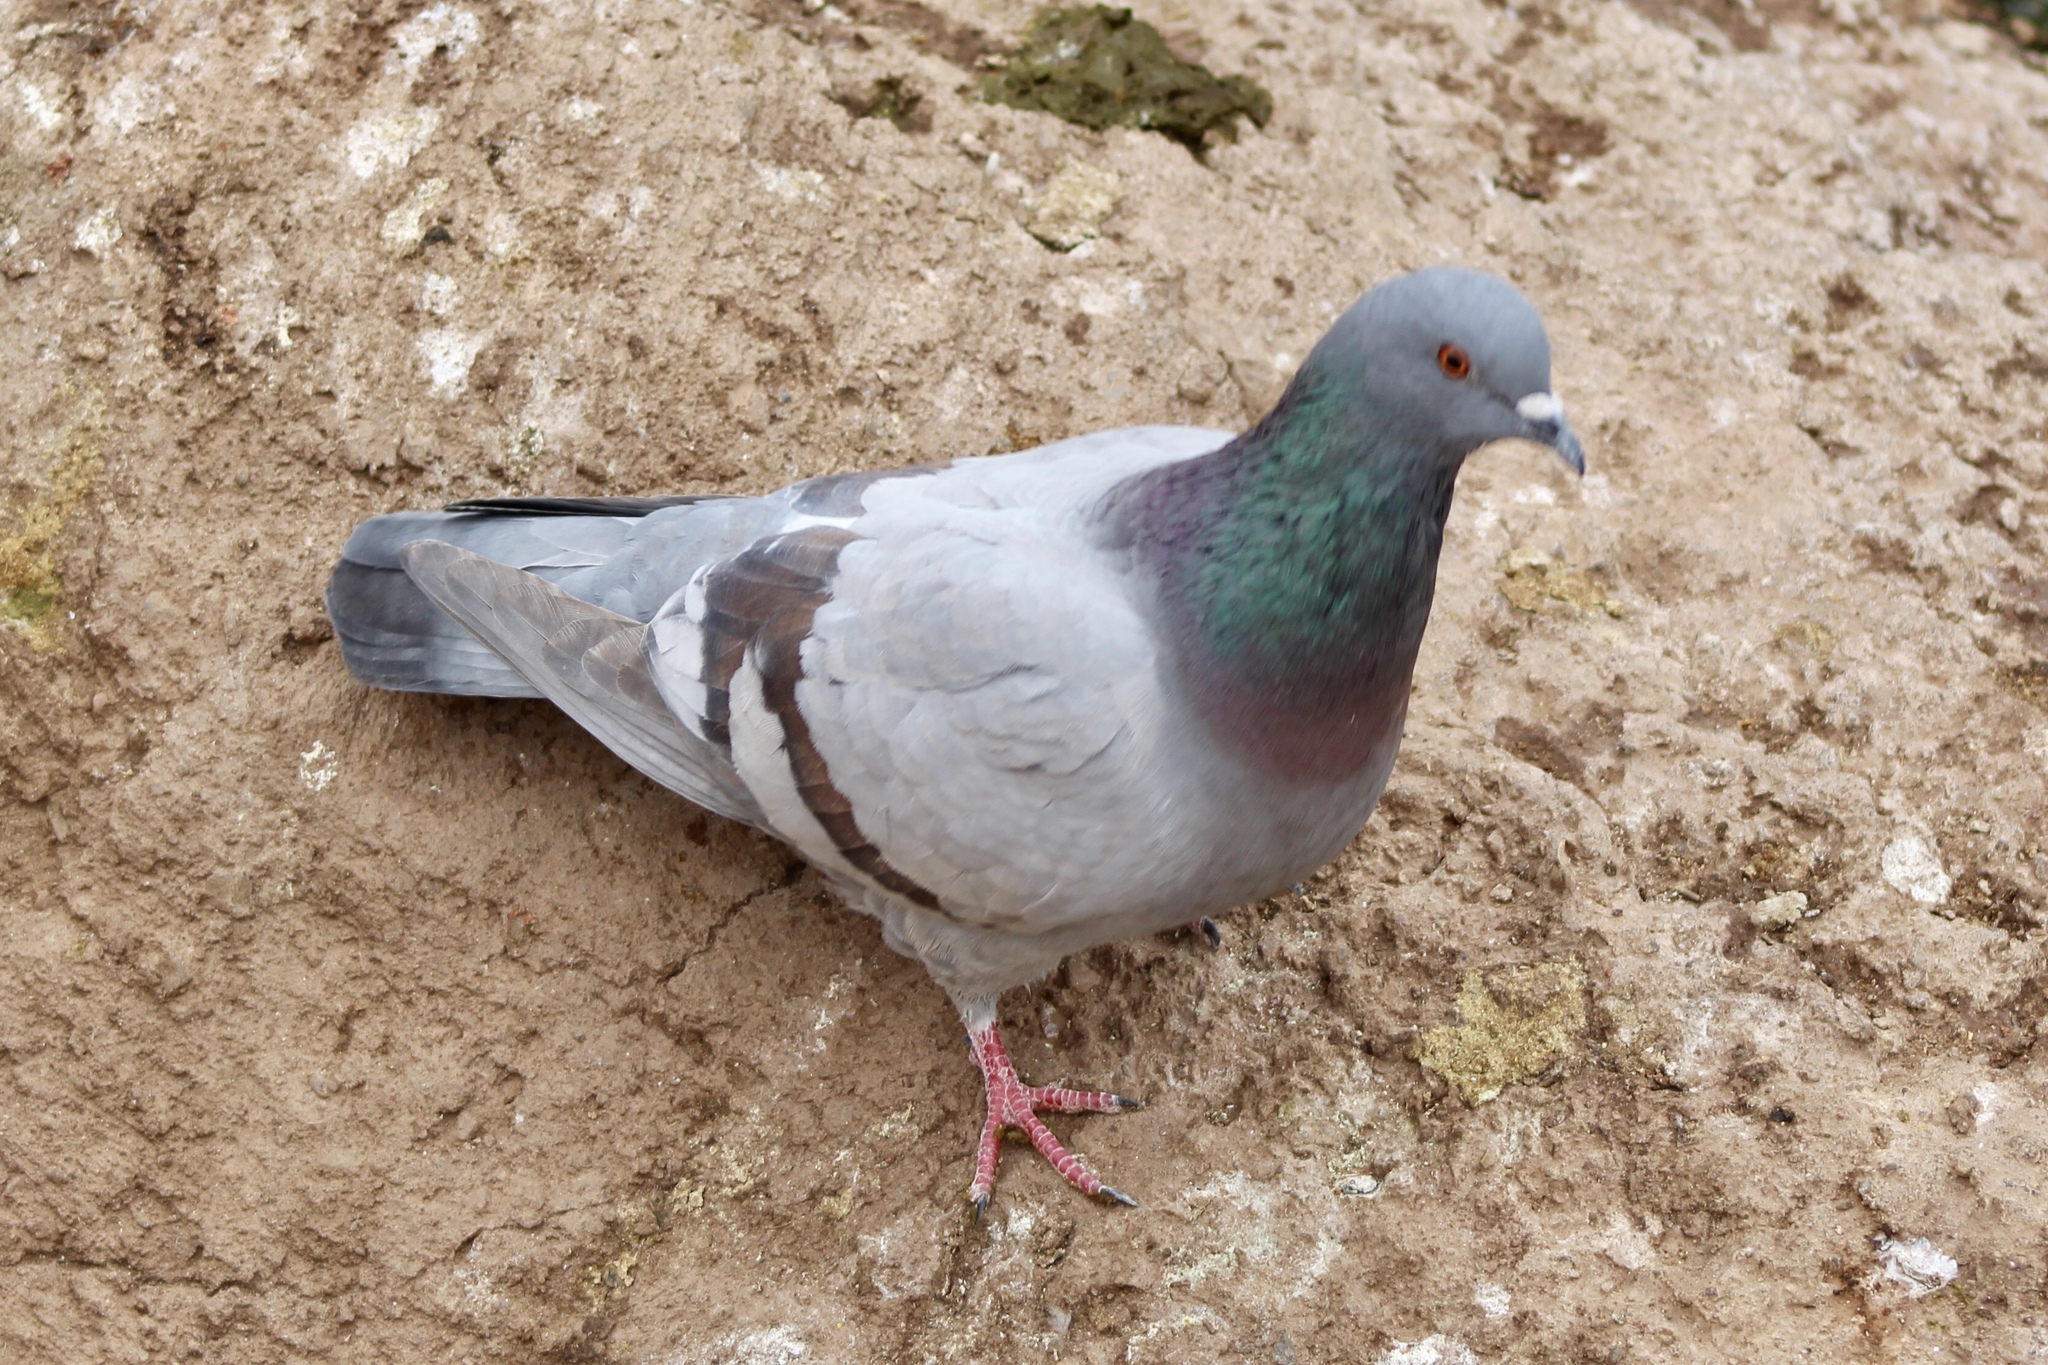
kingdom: Animalia
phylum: Chordata
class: Aves
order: Columbiformes
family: Columbidae
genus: Columba
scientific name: Columba livia
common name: Rock pigeon
